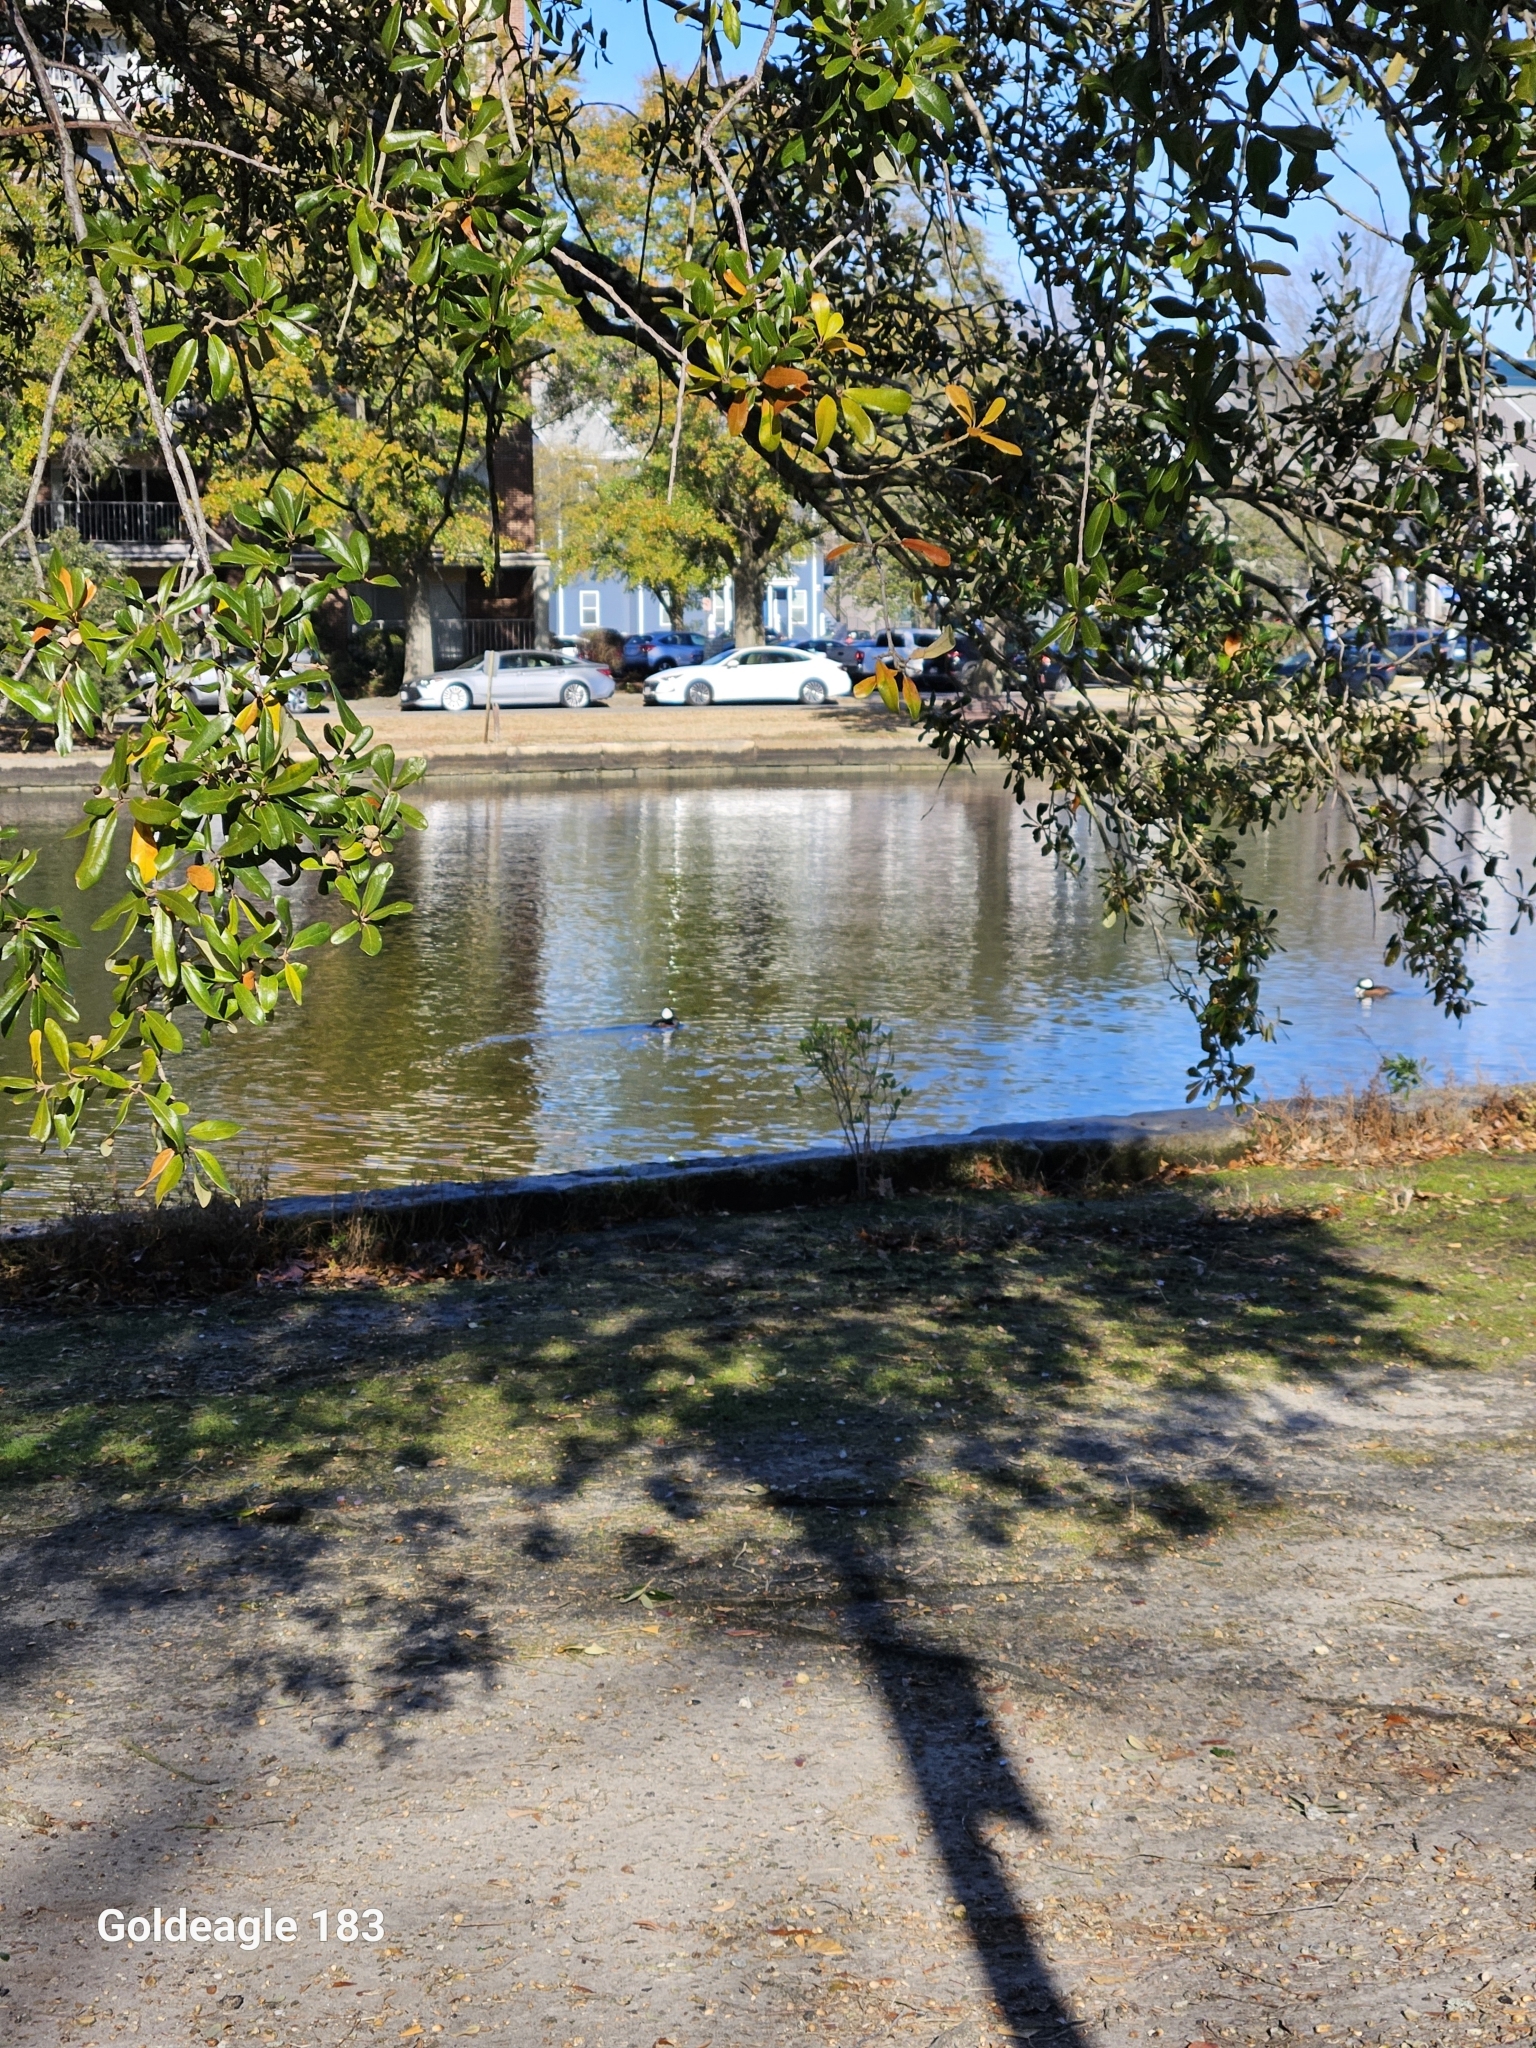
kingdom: Animalia
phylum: Chordata
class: Aves
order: Anseriformes
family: Anatidae
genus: Lophodytes
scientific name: Lophodytes cucullatus
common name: Hooded merganser
